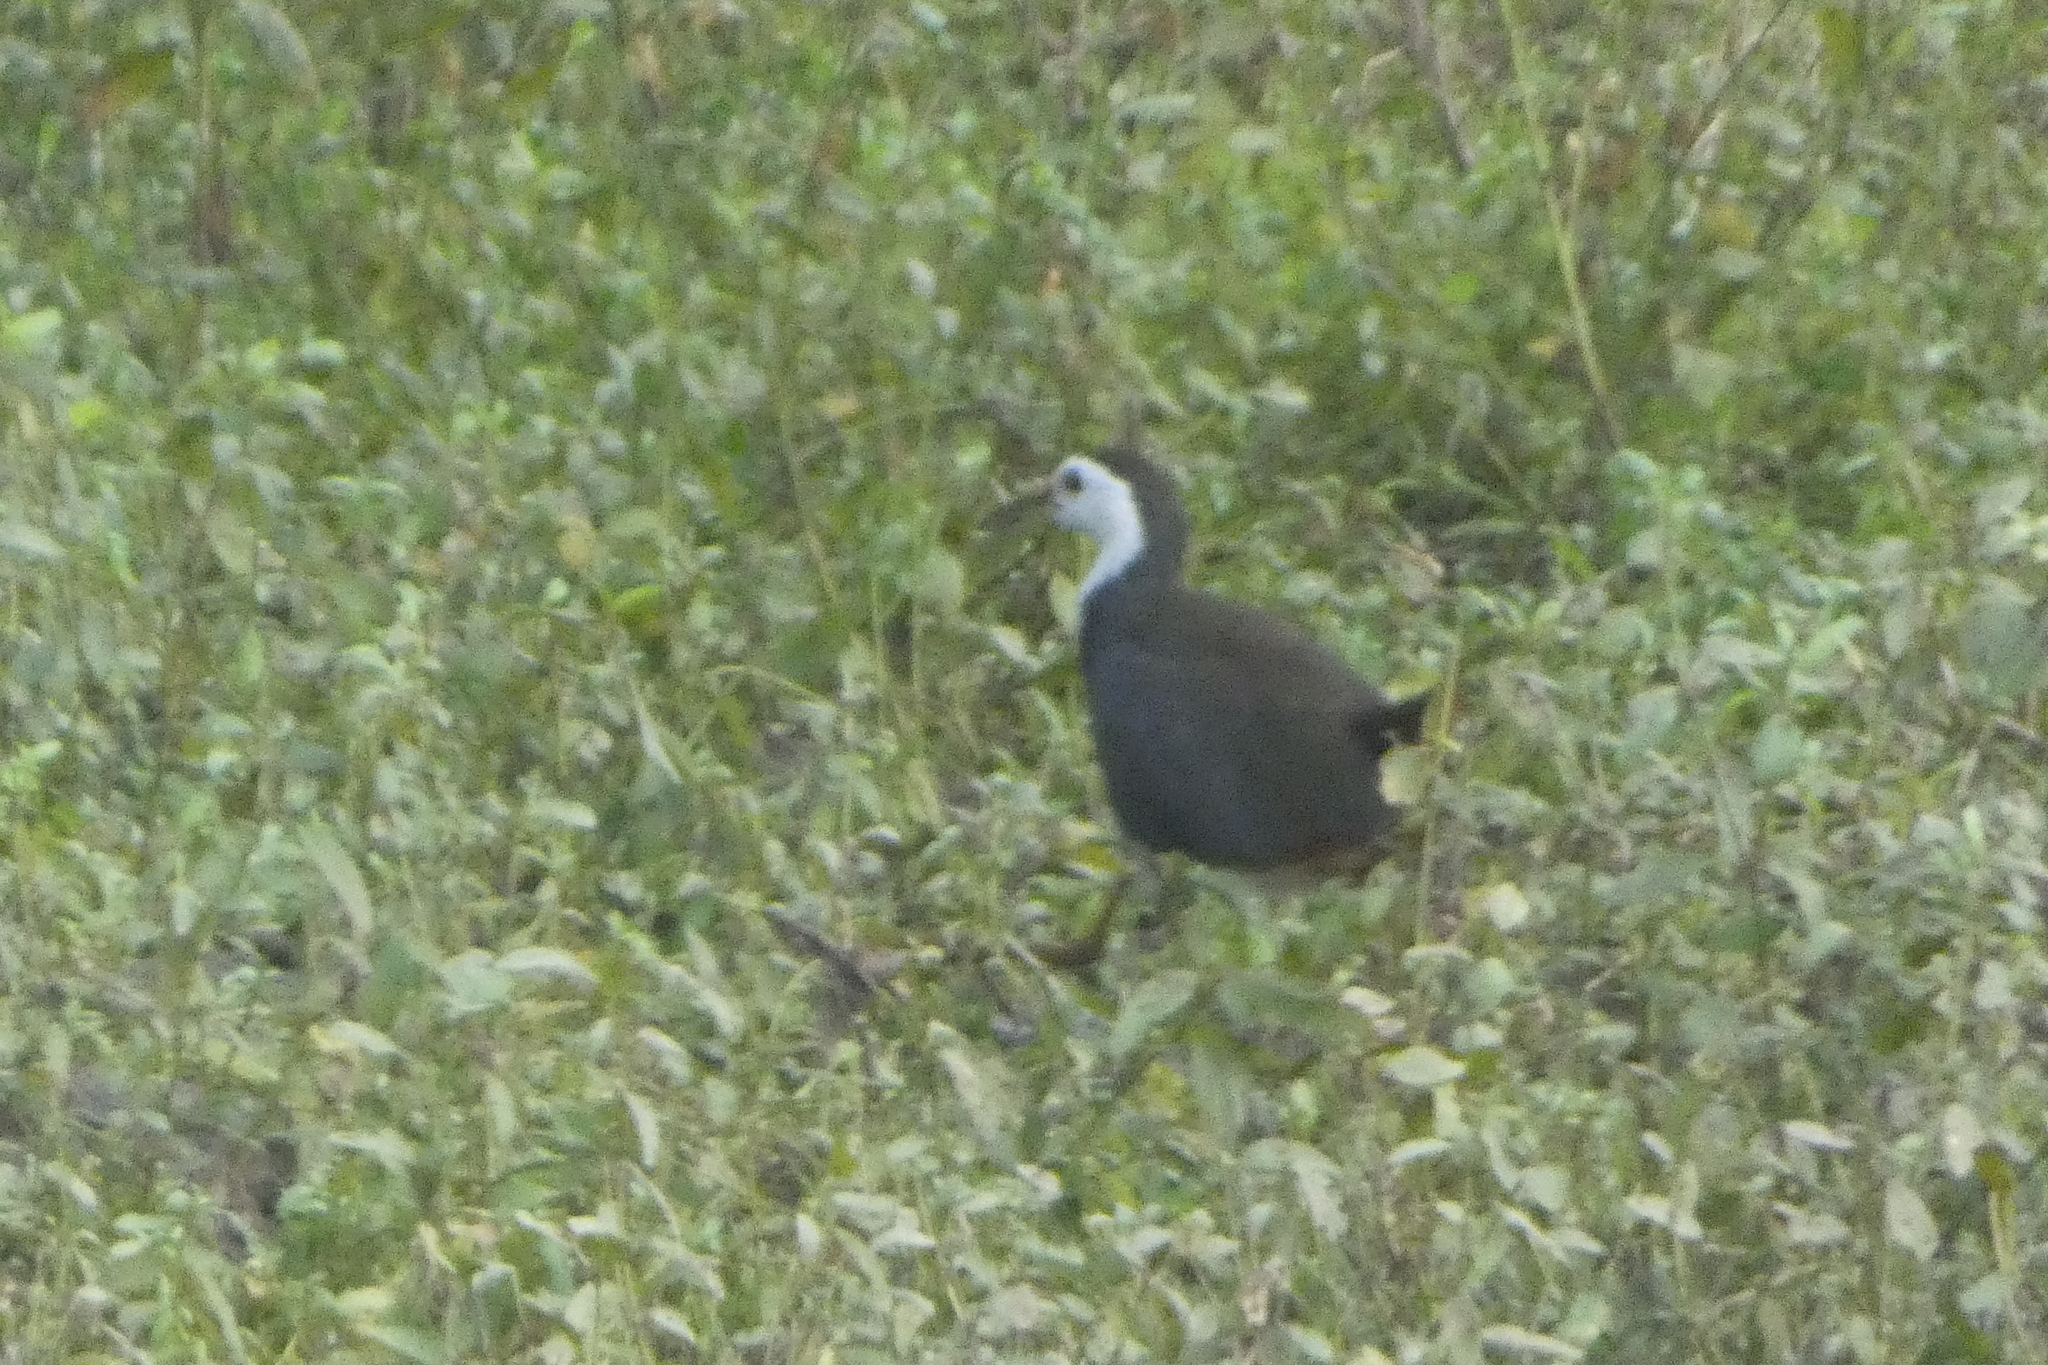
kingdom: Animalia
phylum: Chordata
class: Aves
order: Gruiformes
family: Rallidae
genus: Amaurornis
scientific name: Amaurornis phoenicurus
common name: White-breasted waterhen
